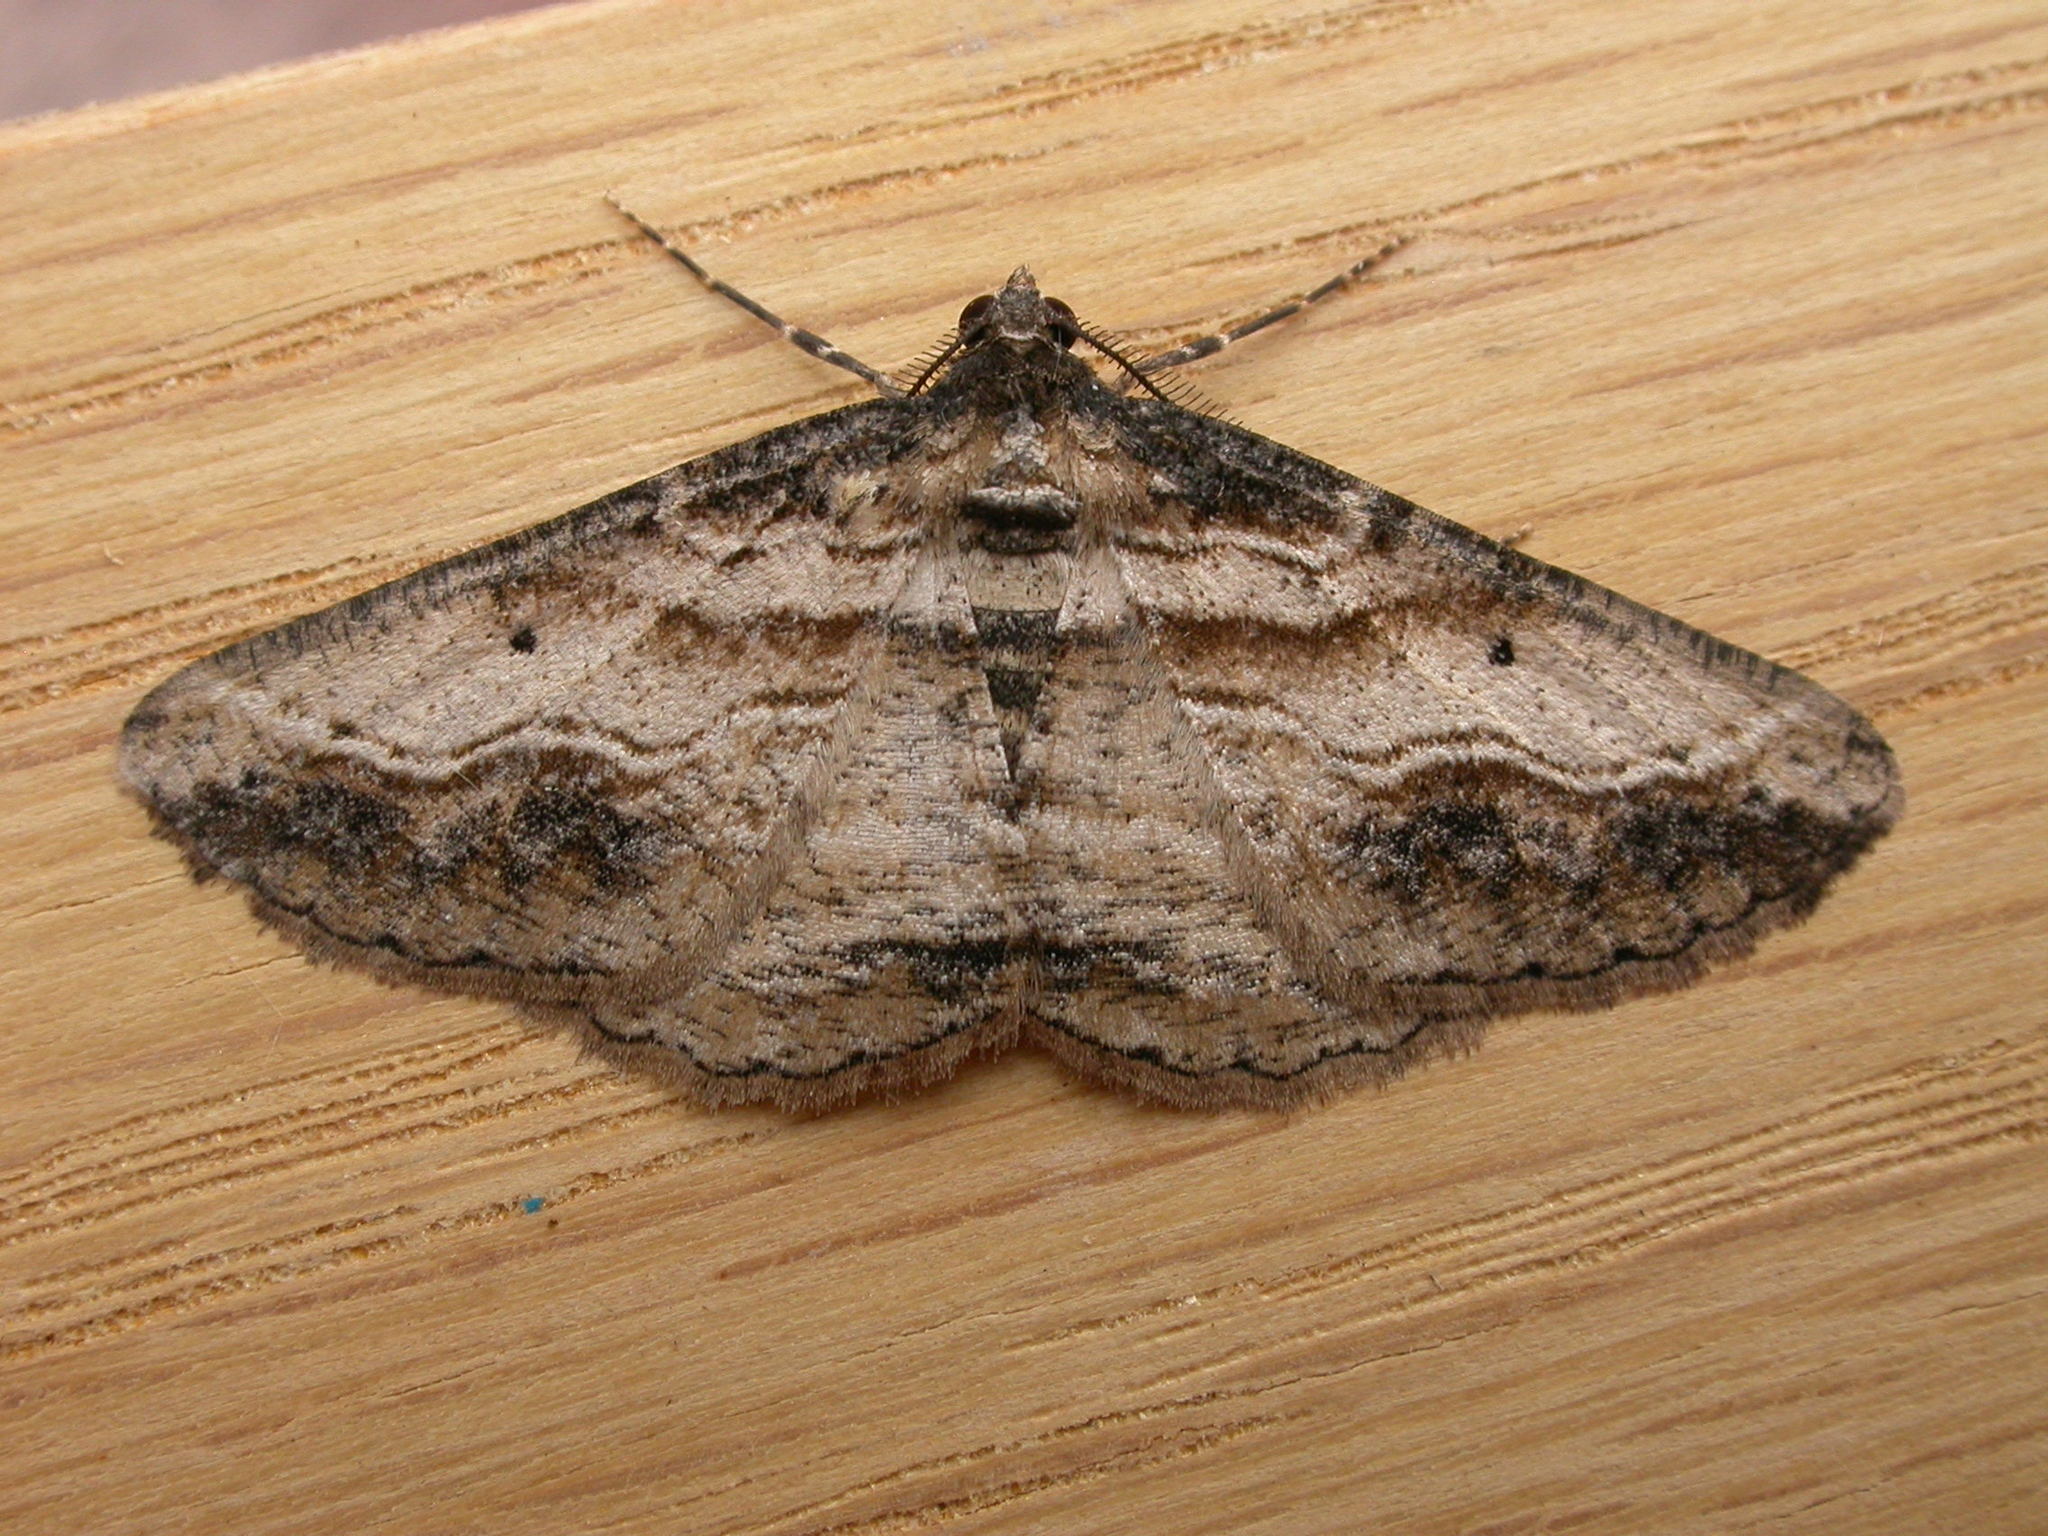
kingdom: Animalia
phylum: Arthropoda
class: Insecta
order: Lepidoptera
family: Geometridae
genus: Syneora
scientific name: Syneora euboliaria
